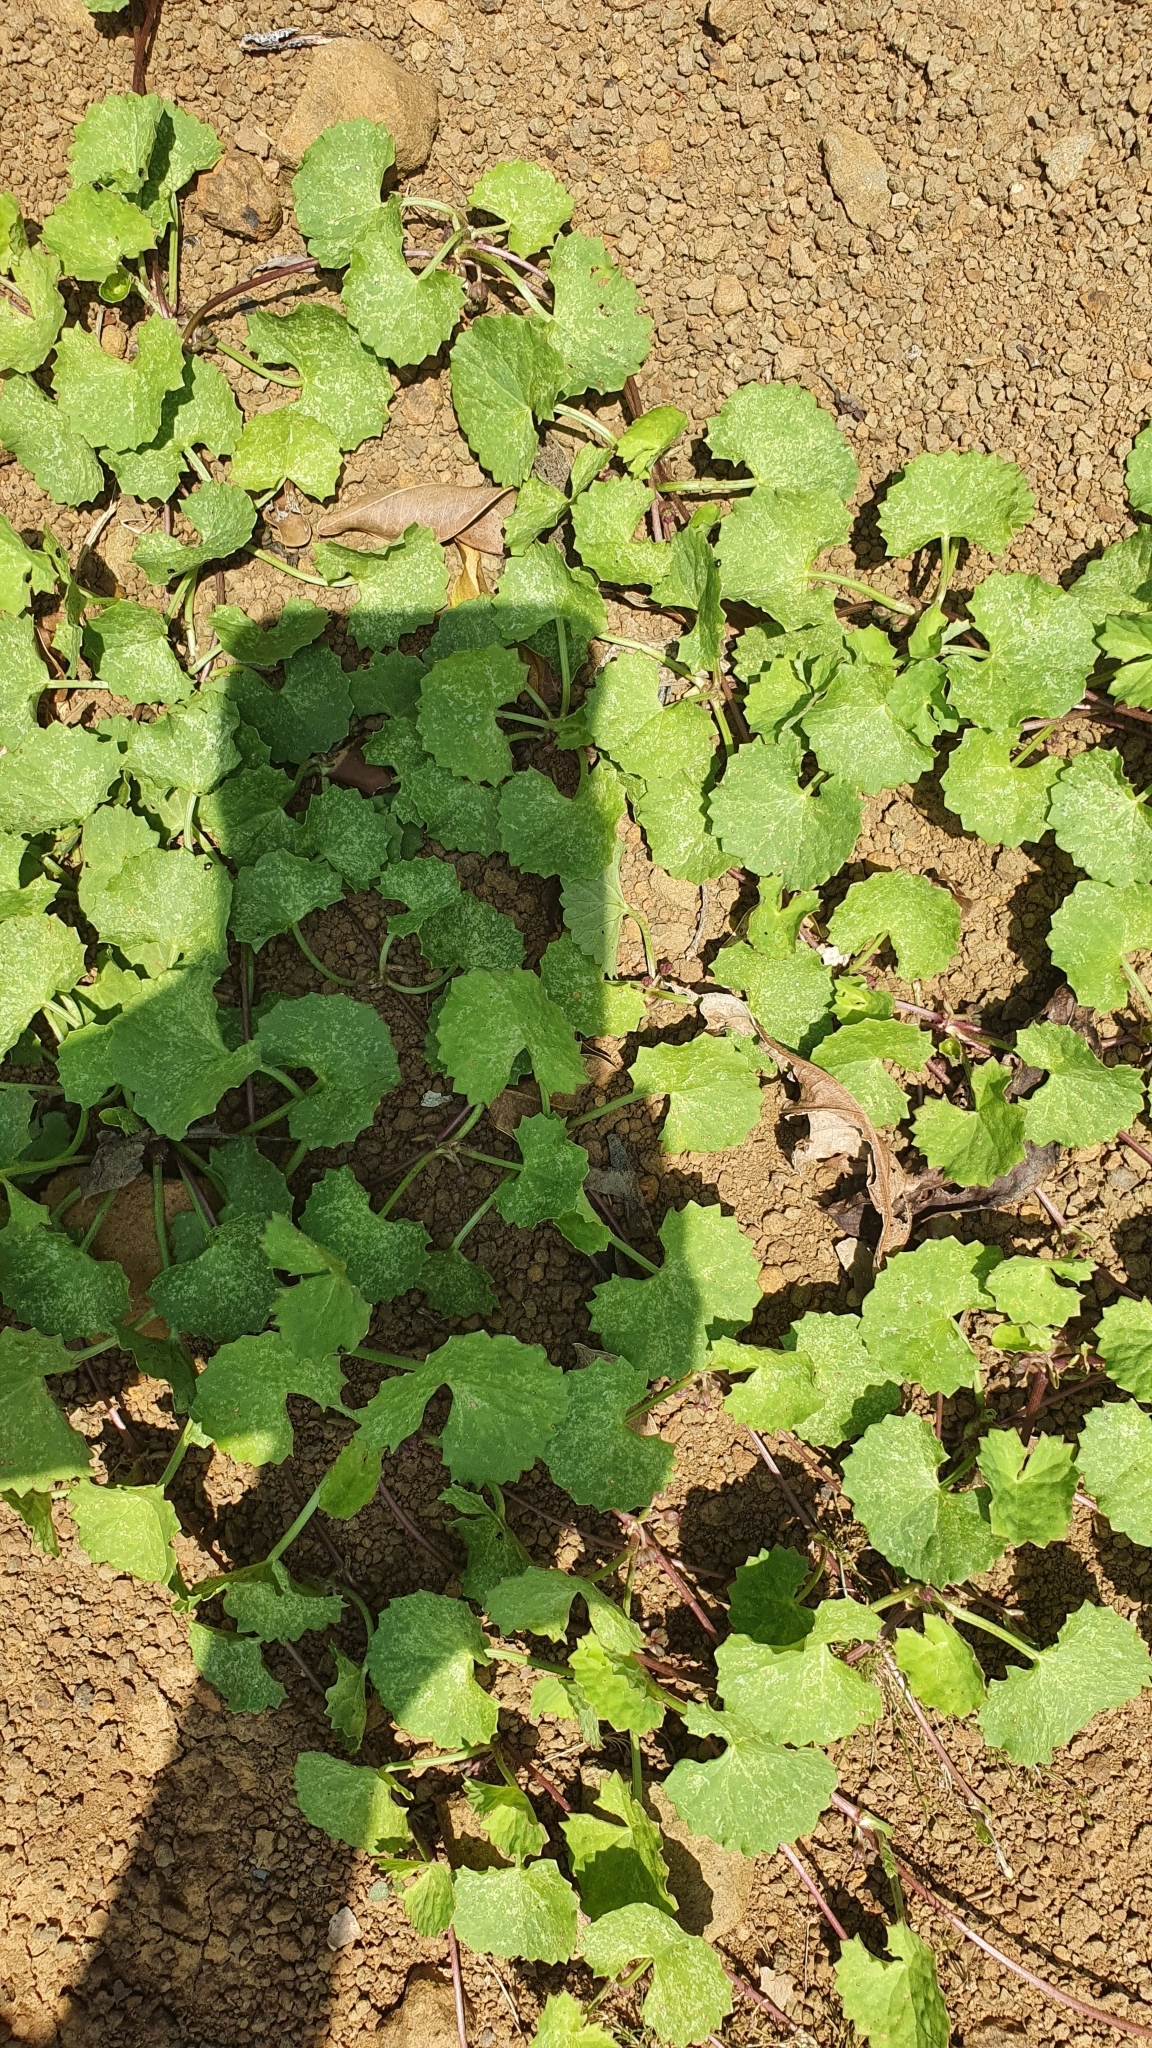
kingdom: Plantae
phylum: Tracheophyta
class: Magnoliopsida
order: Apiales
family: Apiaceae
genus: Centella
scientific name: Centella asiatica
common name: Spadeleaf
